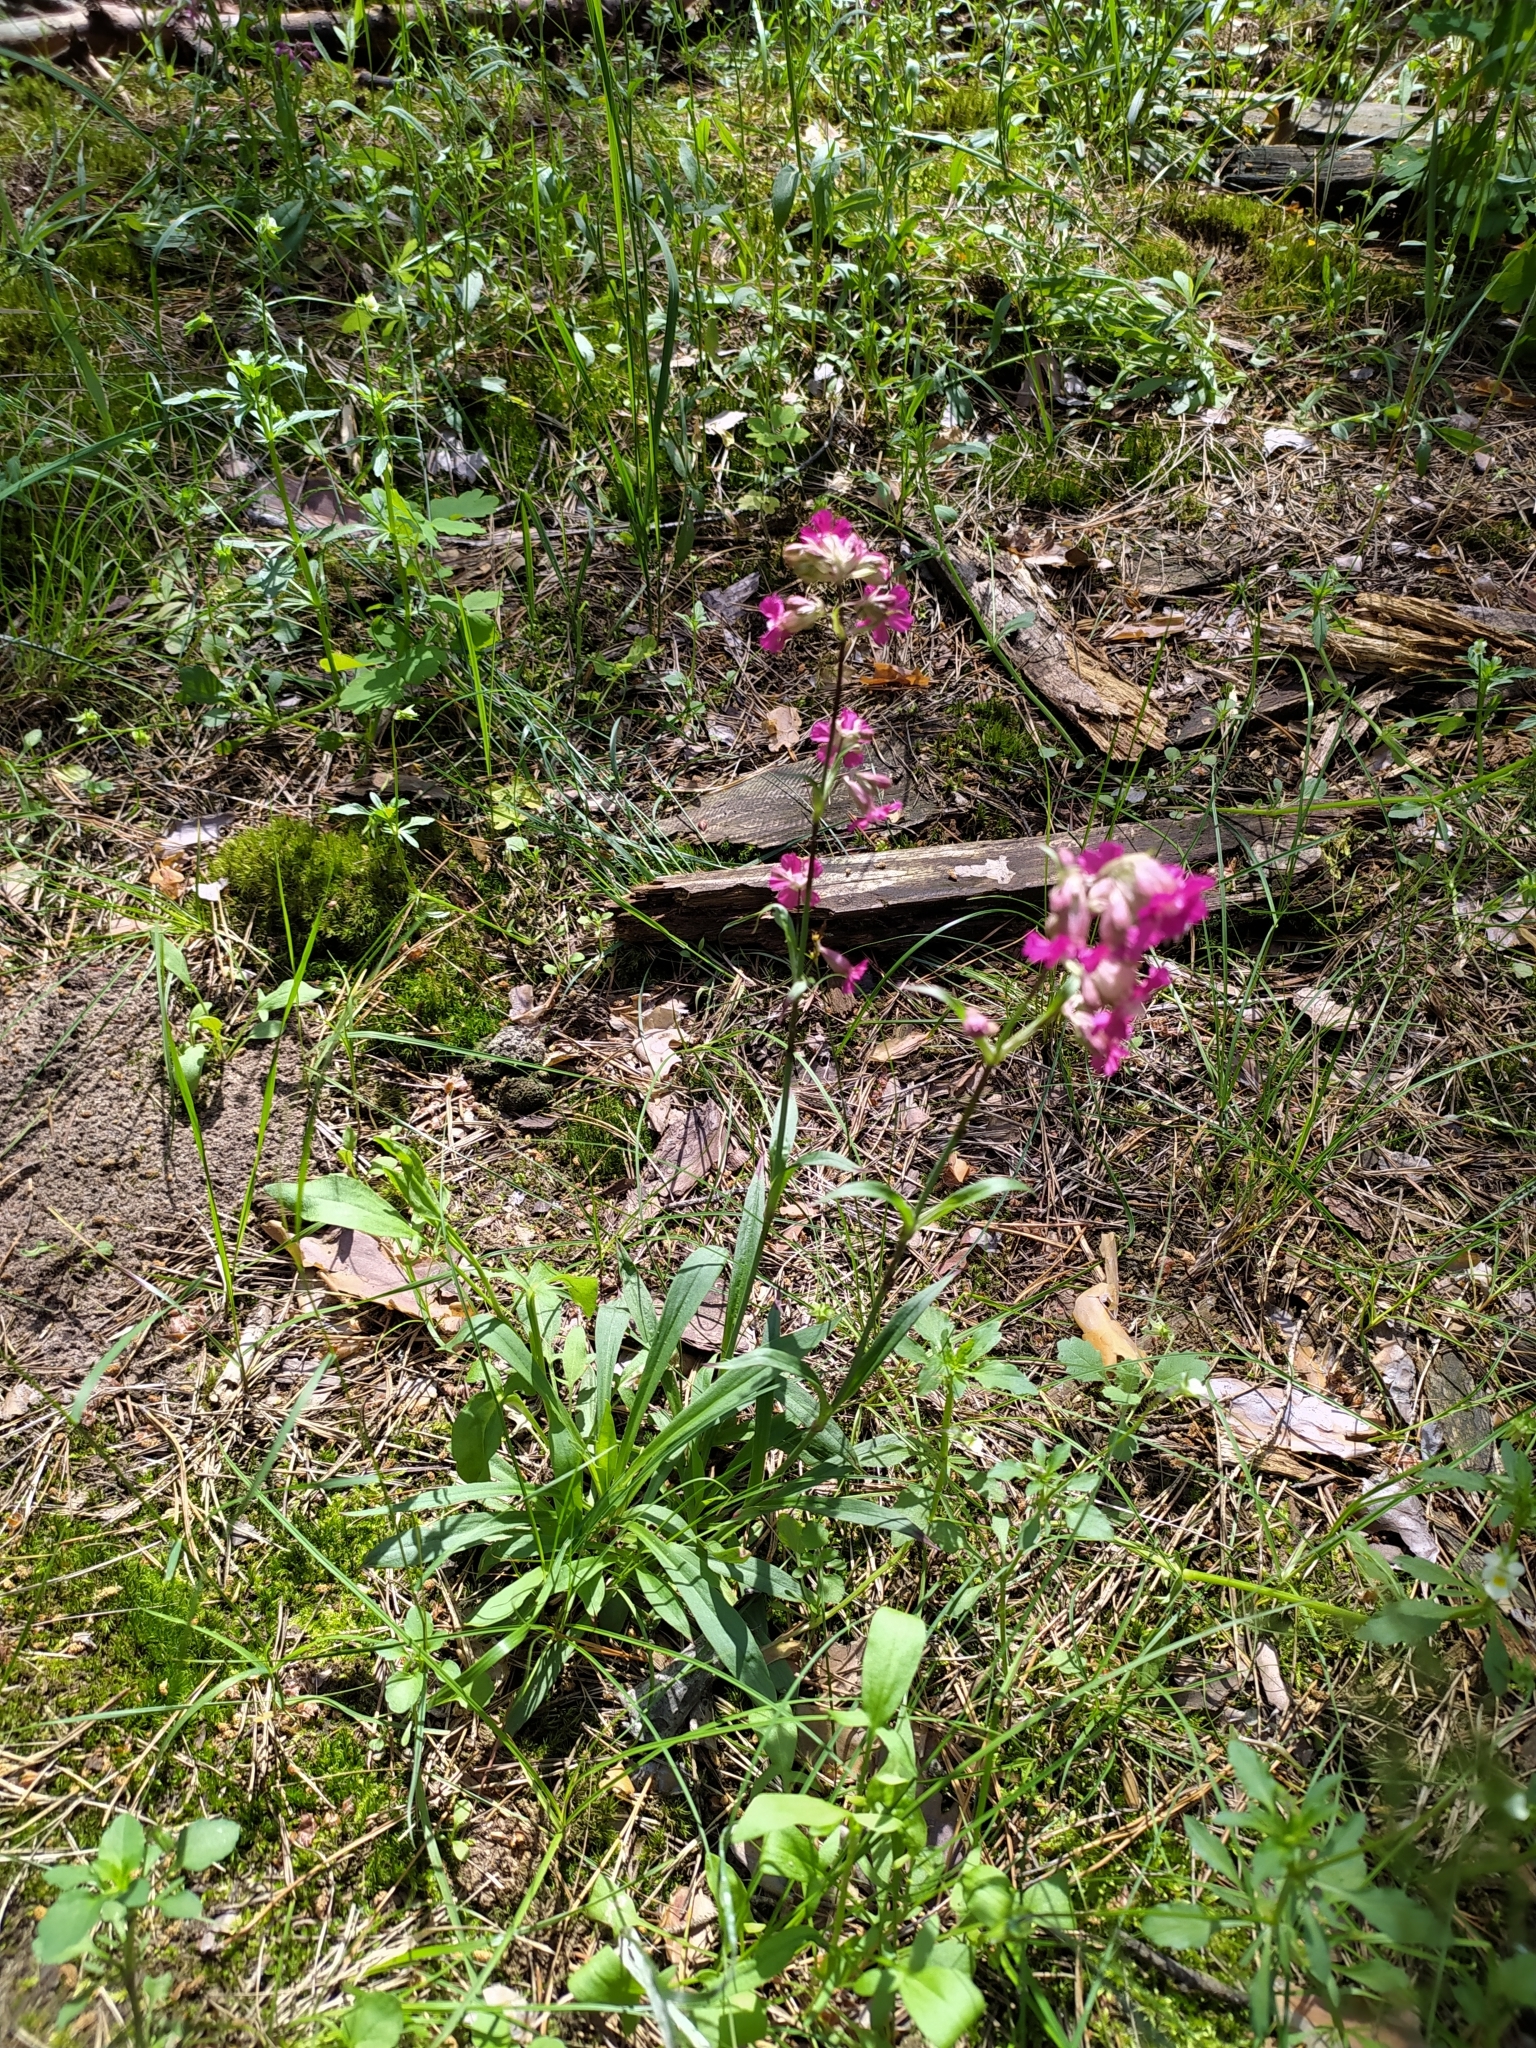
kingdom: Plantae
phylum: Tracheophyta
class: Magnoliopsida
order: Caryophyllales
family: Caryophyllaceae
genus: Viscaria
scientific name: Viscaria vulgaris
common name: Clammy campion
